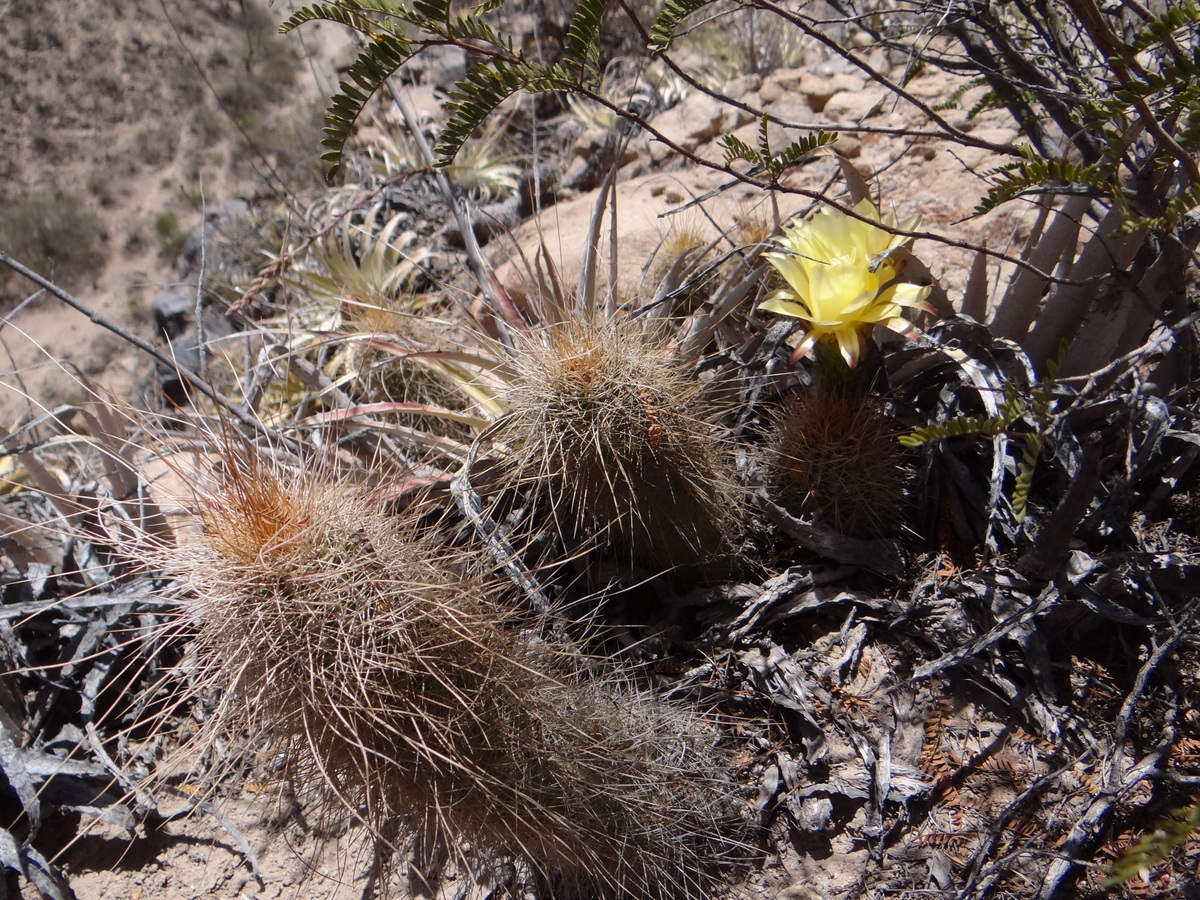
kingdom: Plantae
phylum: Tracheophyta
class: Magnoliopsida
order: Caryophyllales
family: Cactaceae
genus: Soehrensia
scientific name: Soehrensia huascha
